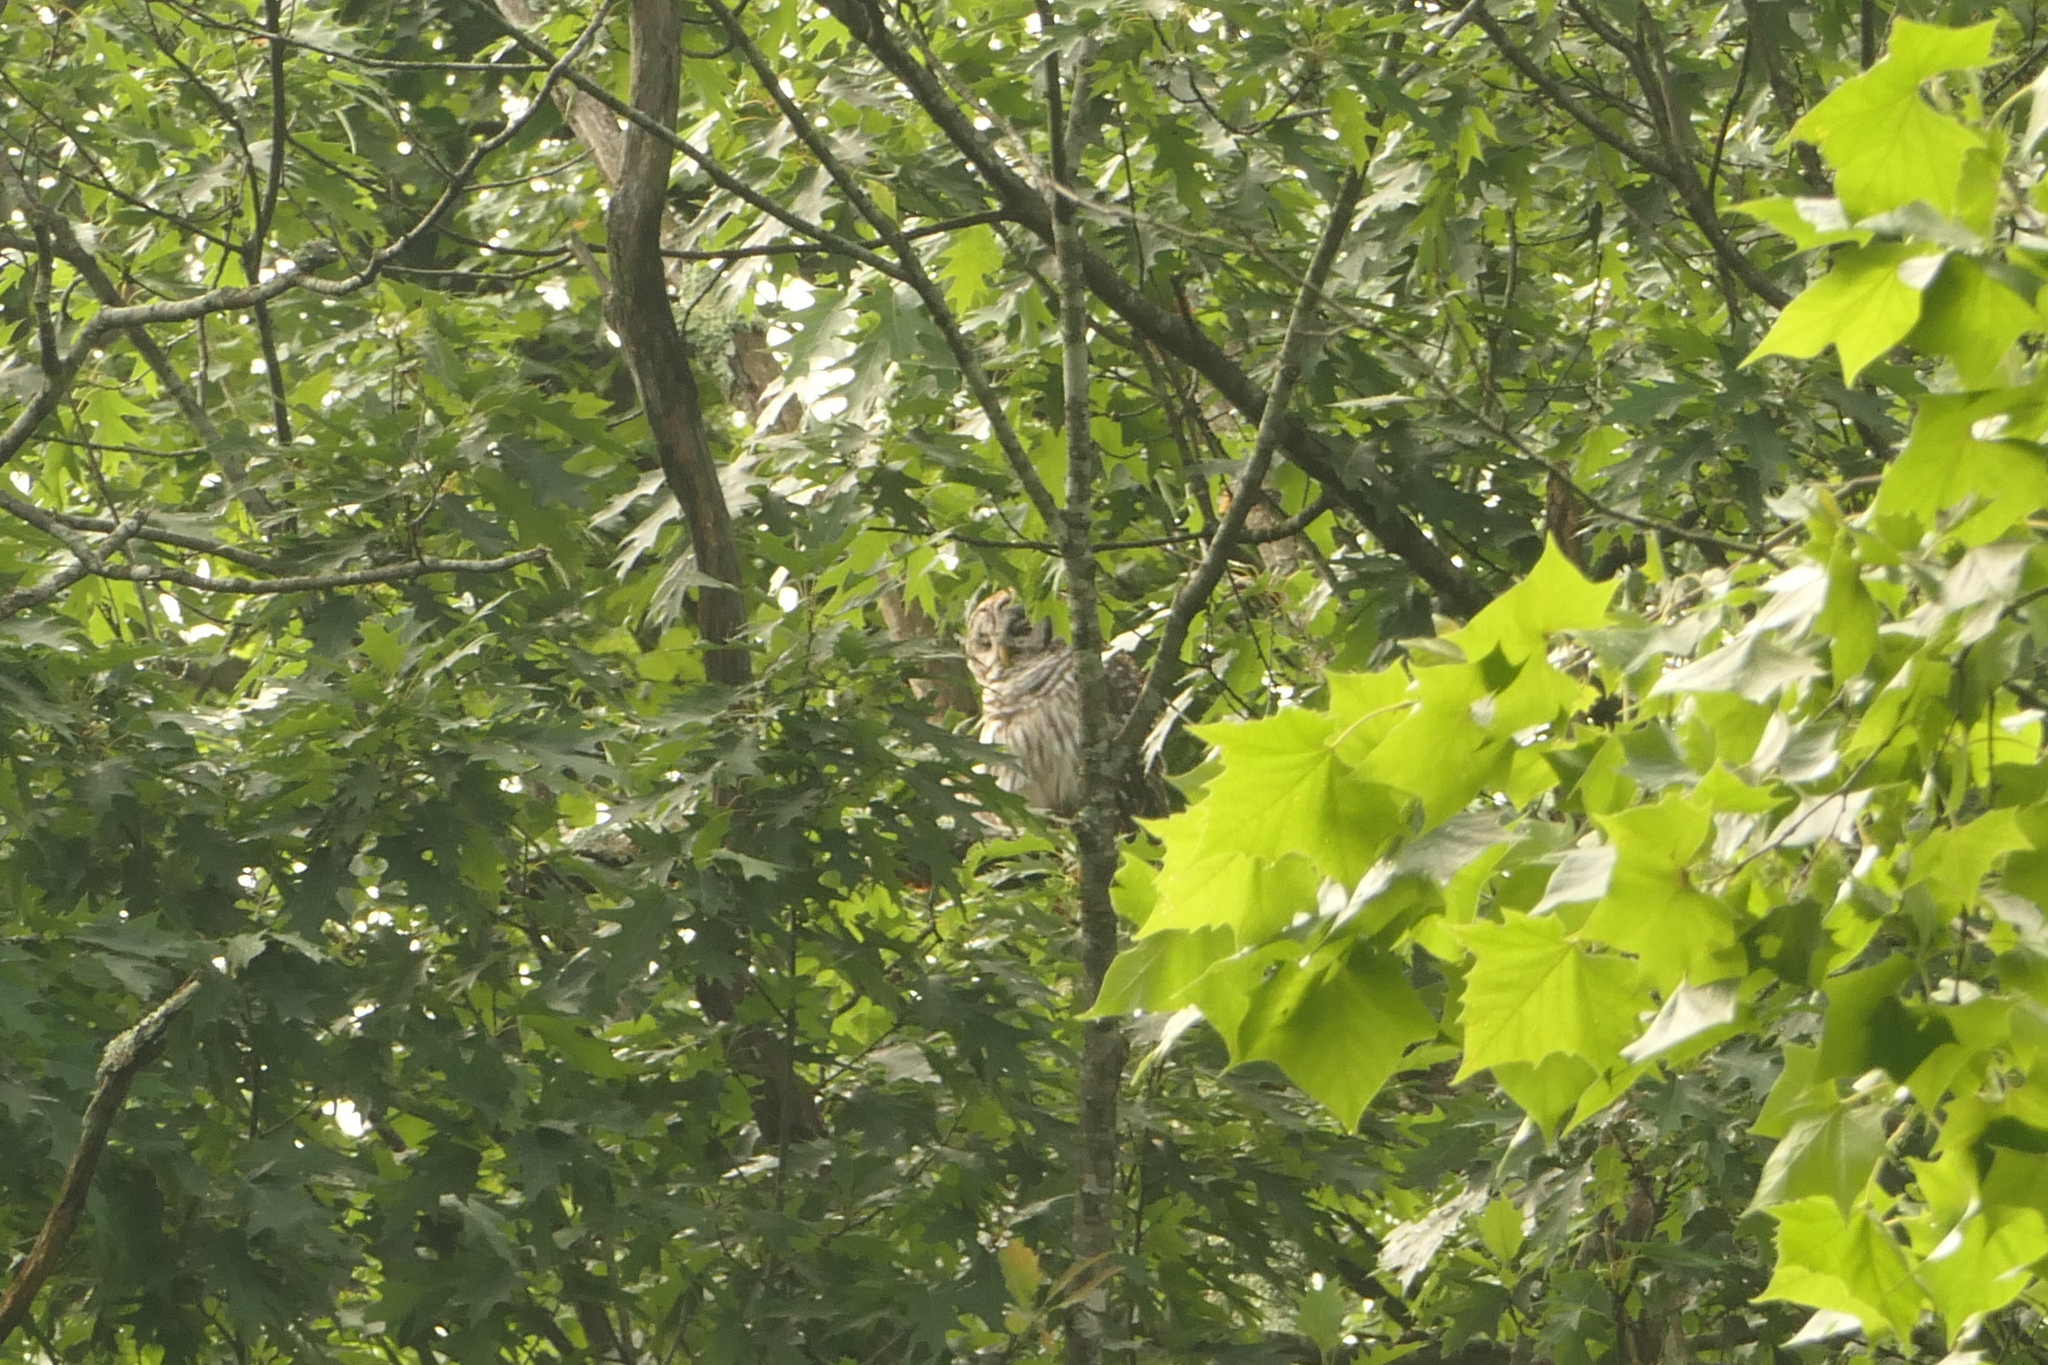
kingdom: Animalia
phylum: Chordata
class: Aves
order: Strigiformes
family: Strigidae
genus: Strix
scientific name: Strix varia
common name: Barred owl
